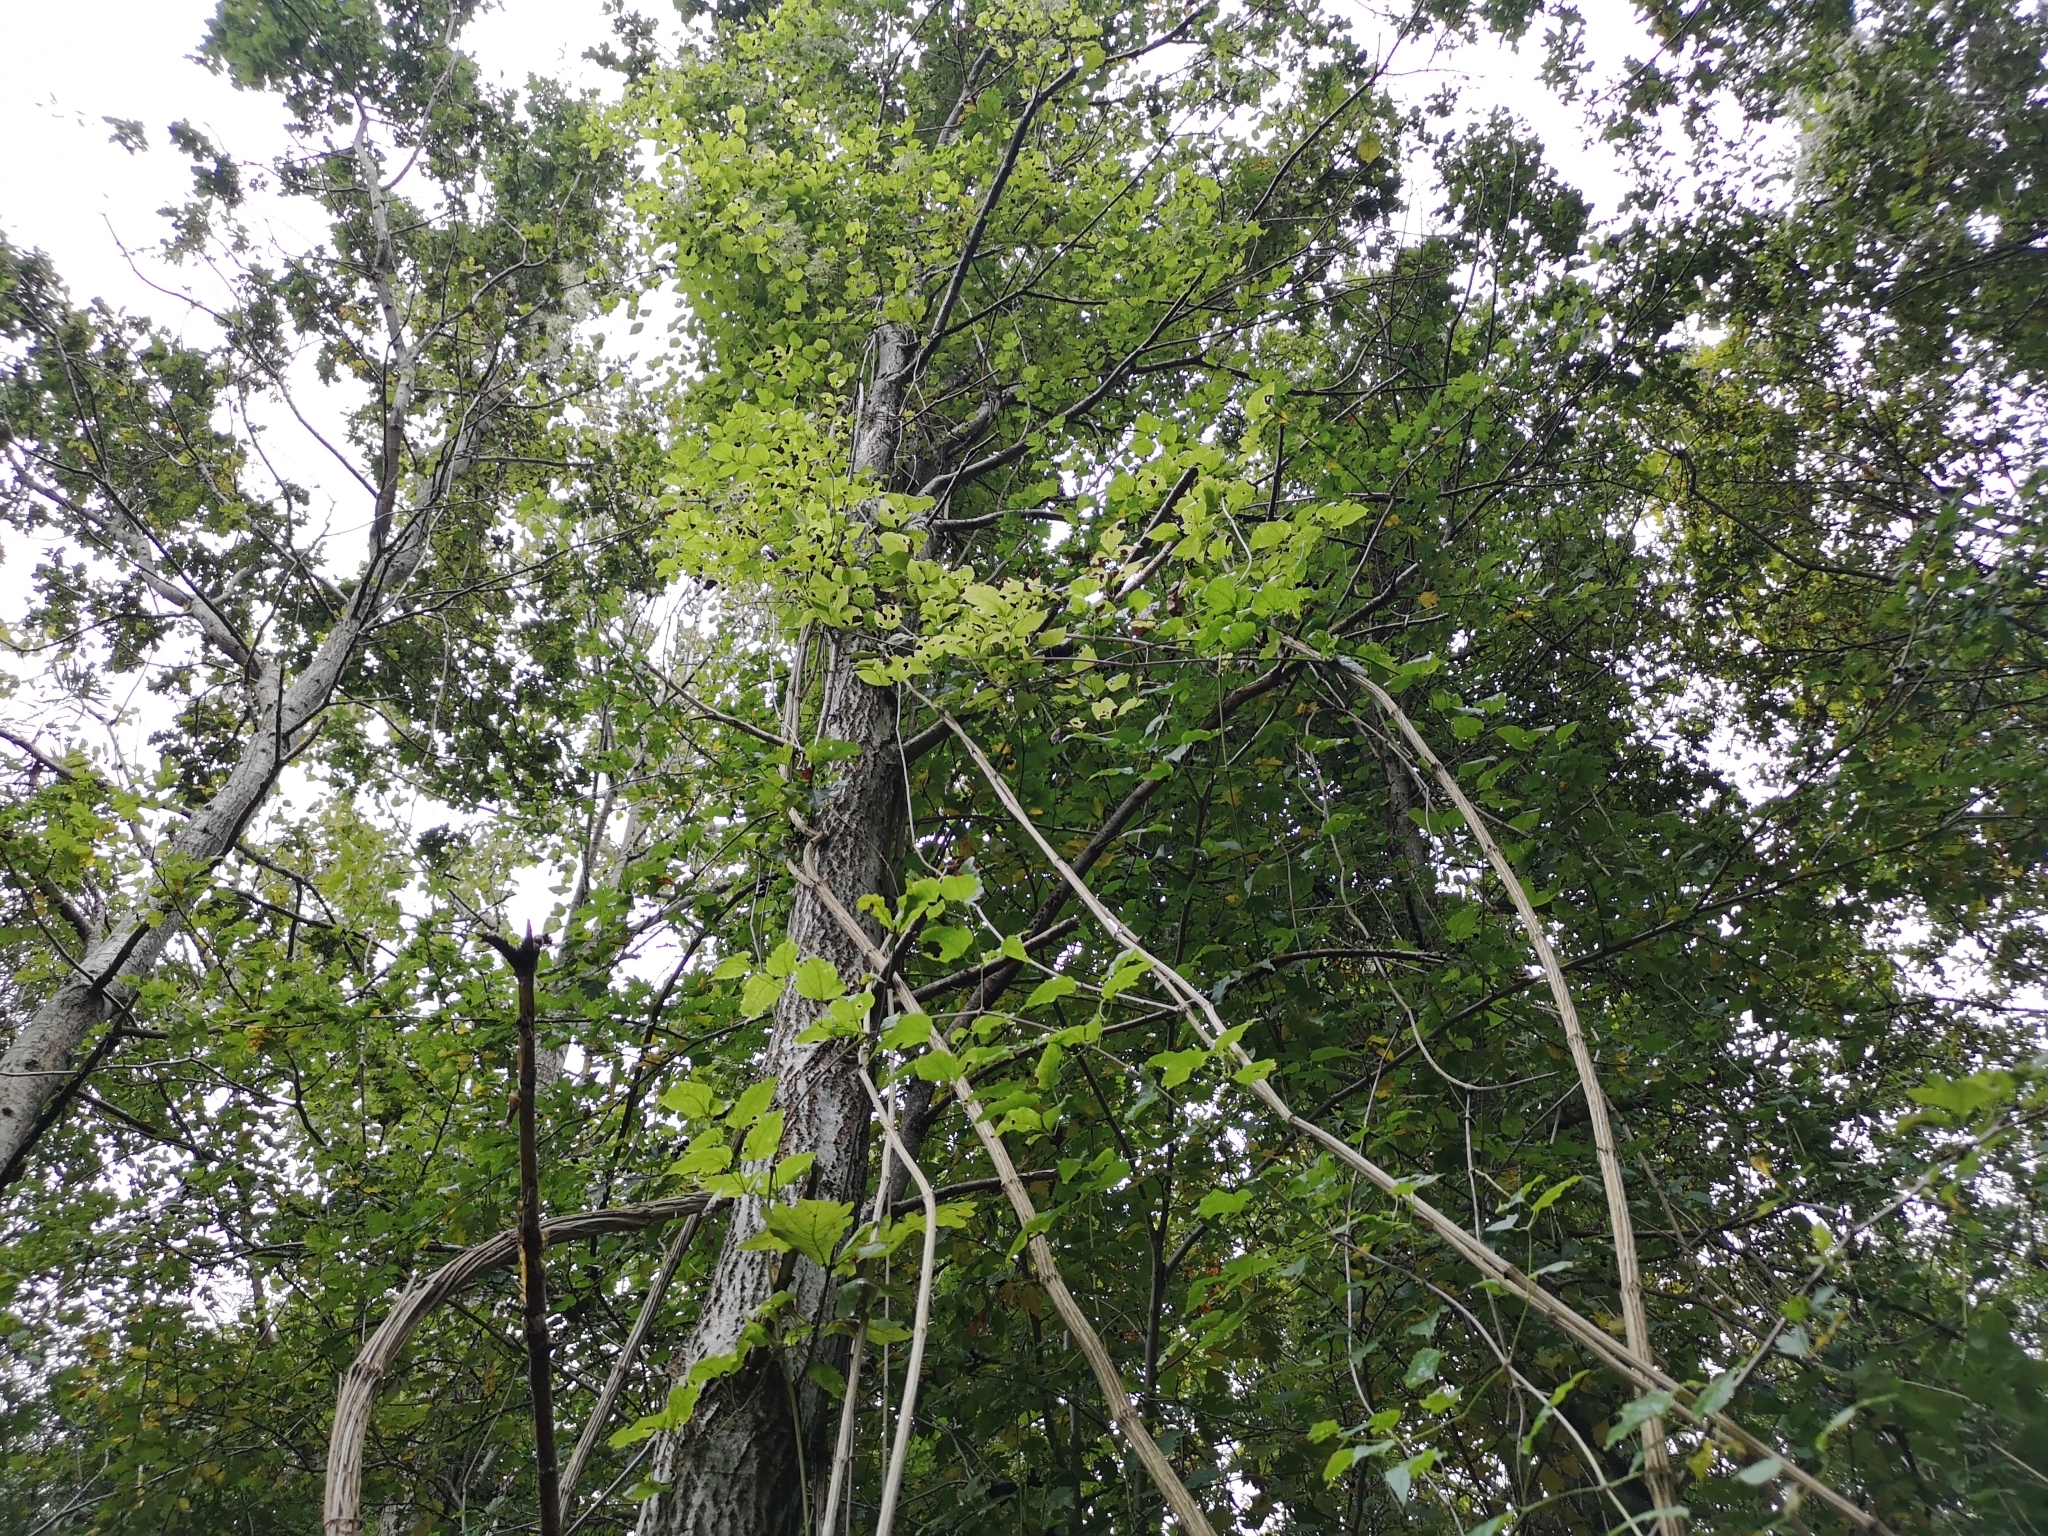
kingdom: Plantae
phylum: Tracheophyta
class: Magnoliopsida
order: Ranunculales
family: Ranunculaceae
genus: Clematis
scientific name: Clematis vitalba
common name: Evergreen clematis
